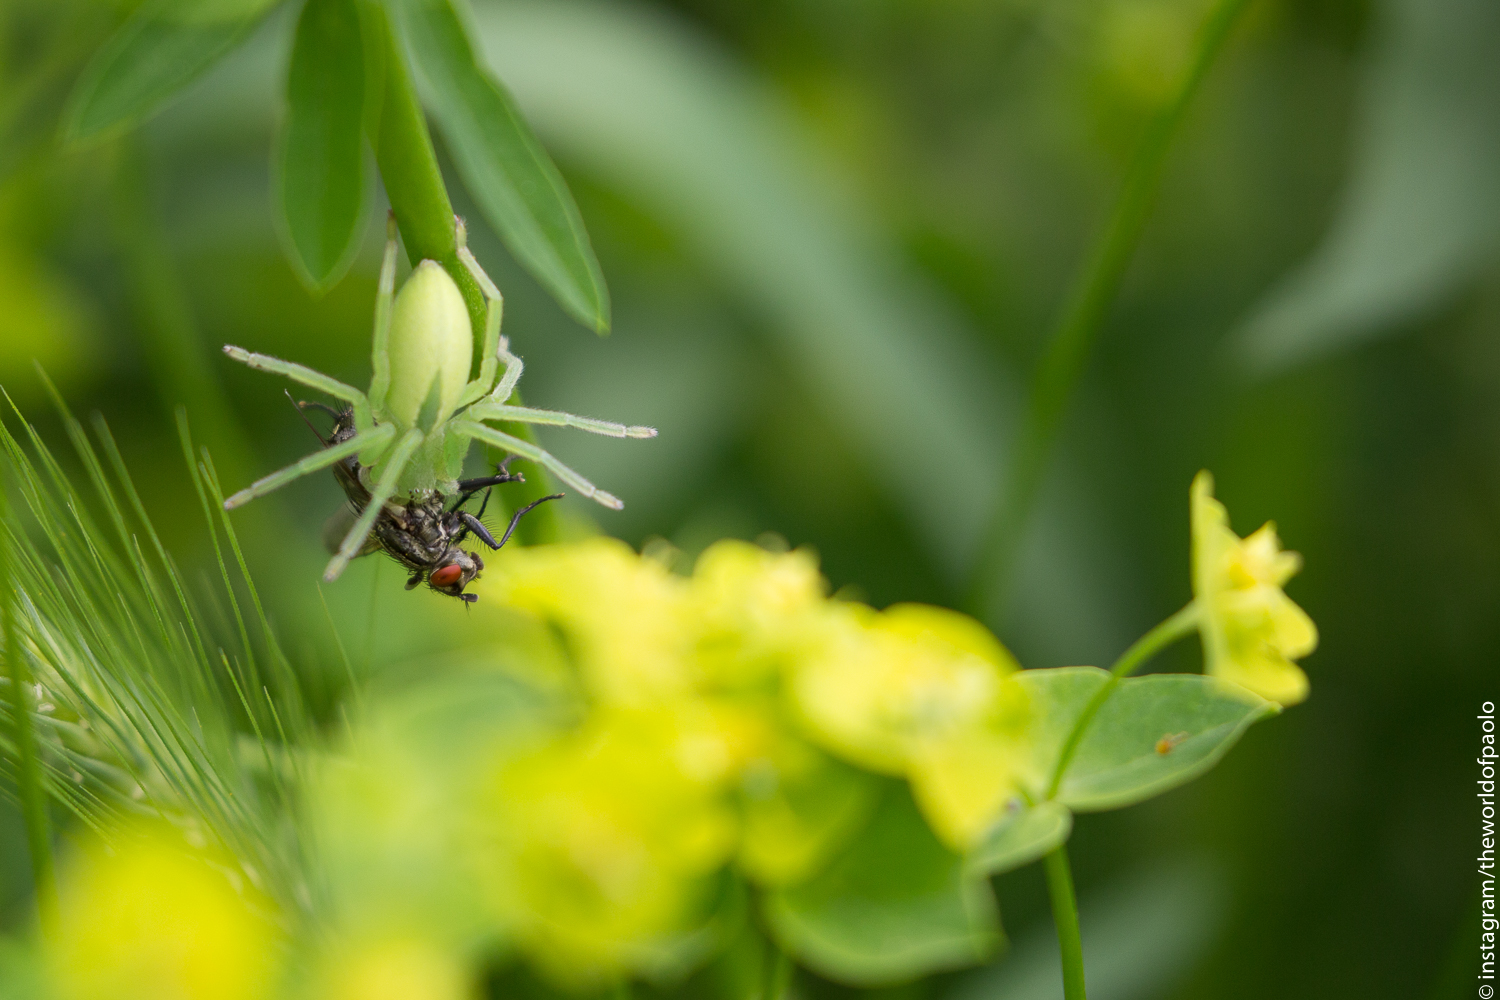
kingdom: Animalia
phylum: Arthropoda
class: Arachnida
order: Araneae
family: Sparassidae
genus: Micrommata
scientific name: Micrommata virescens
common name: Green spider
